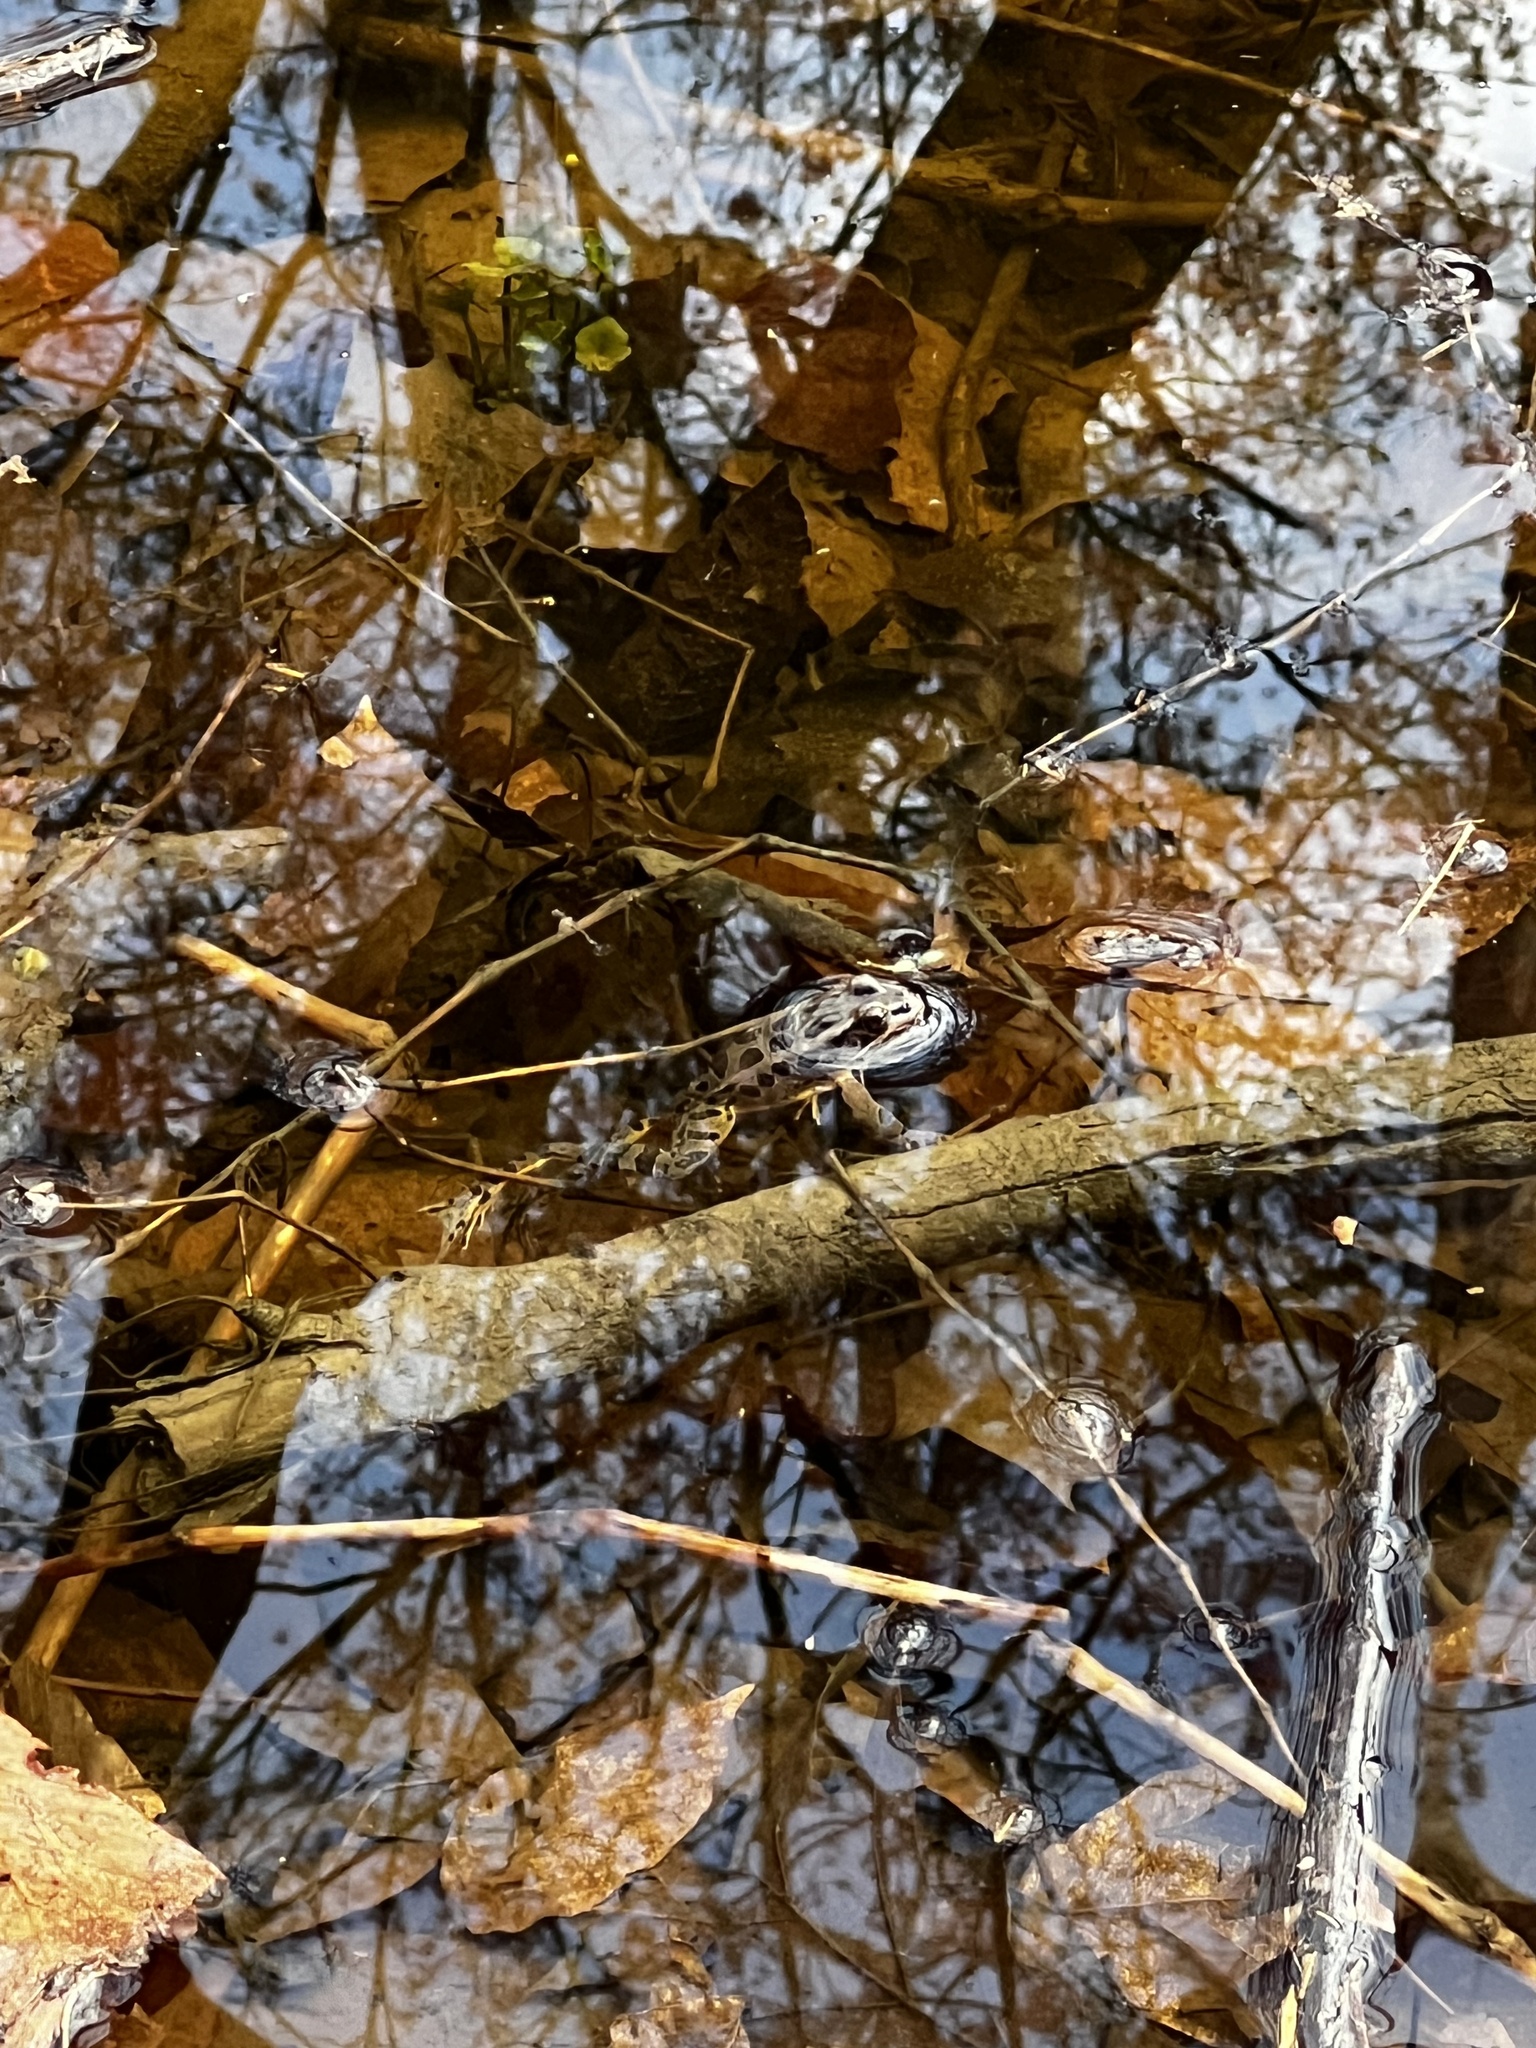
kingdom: Animalia
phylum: Chordata
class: Amphibia
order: Anura
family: Ranidae
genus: Lithobates
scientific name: Lithobates palustris
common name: Pickerel frog
